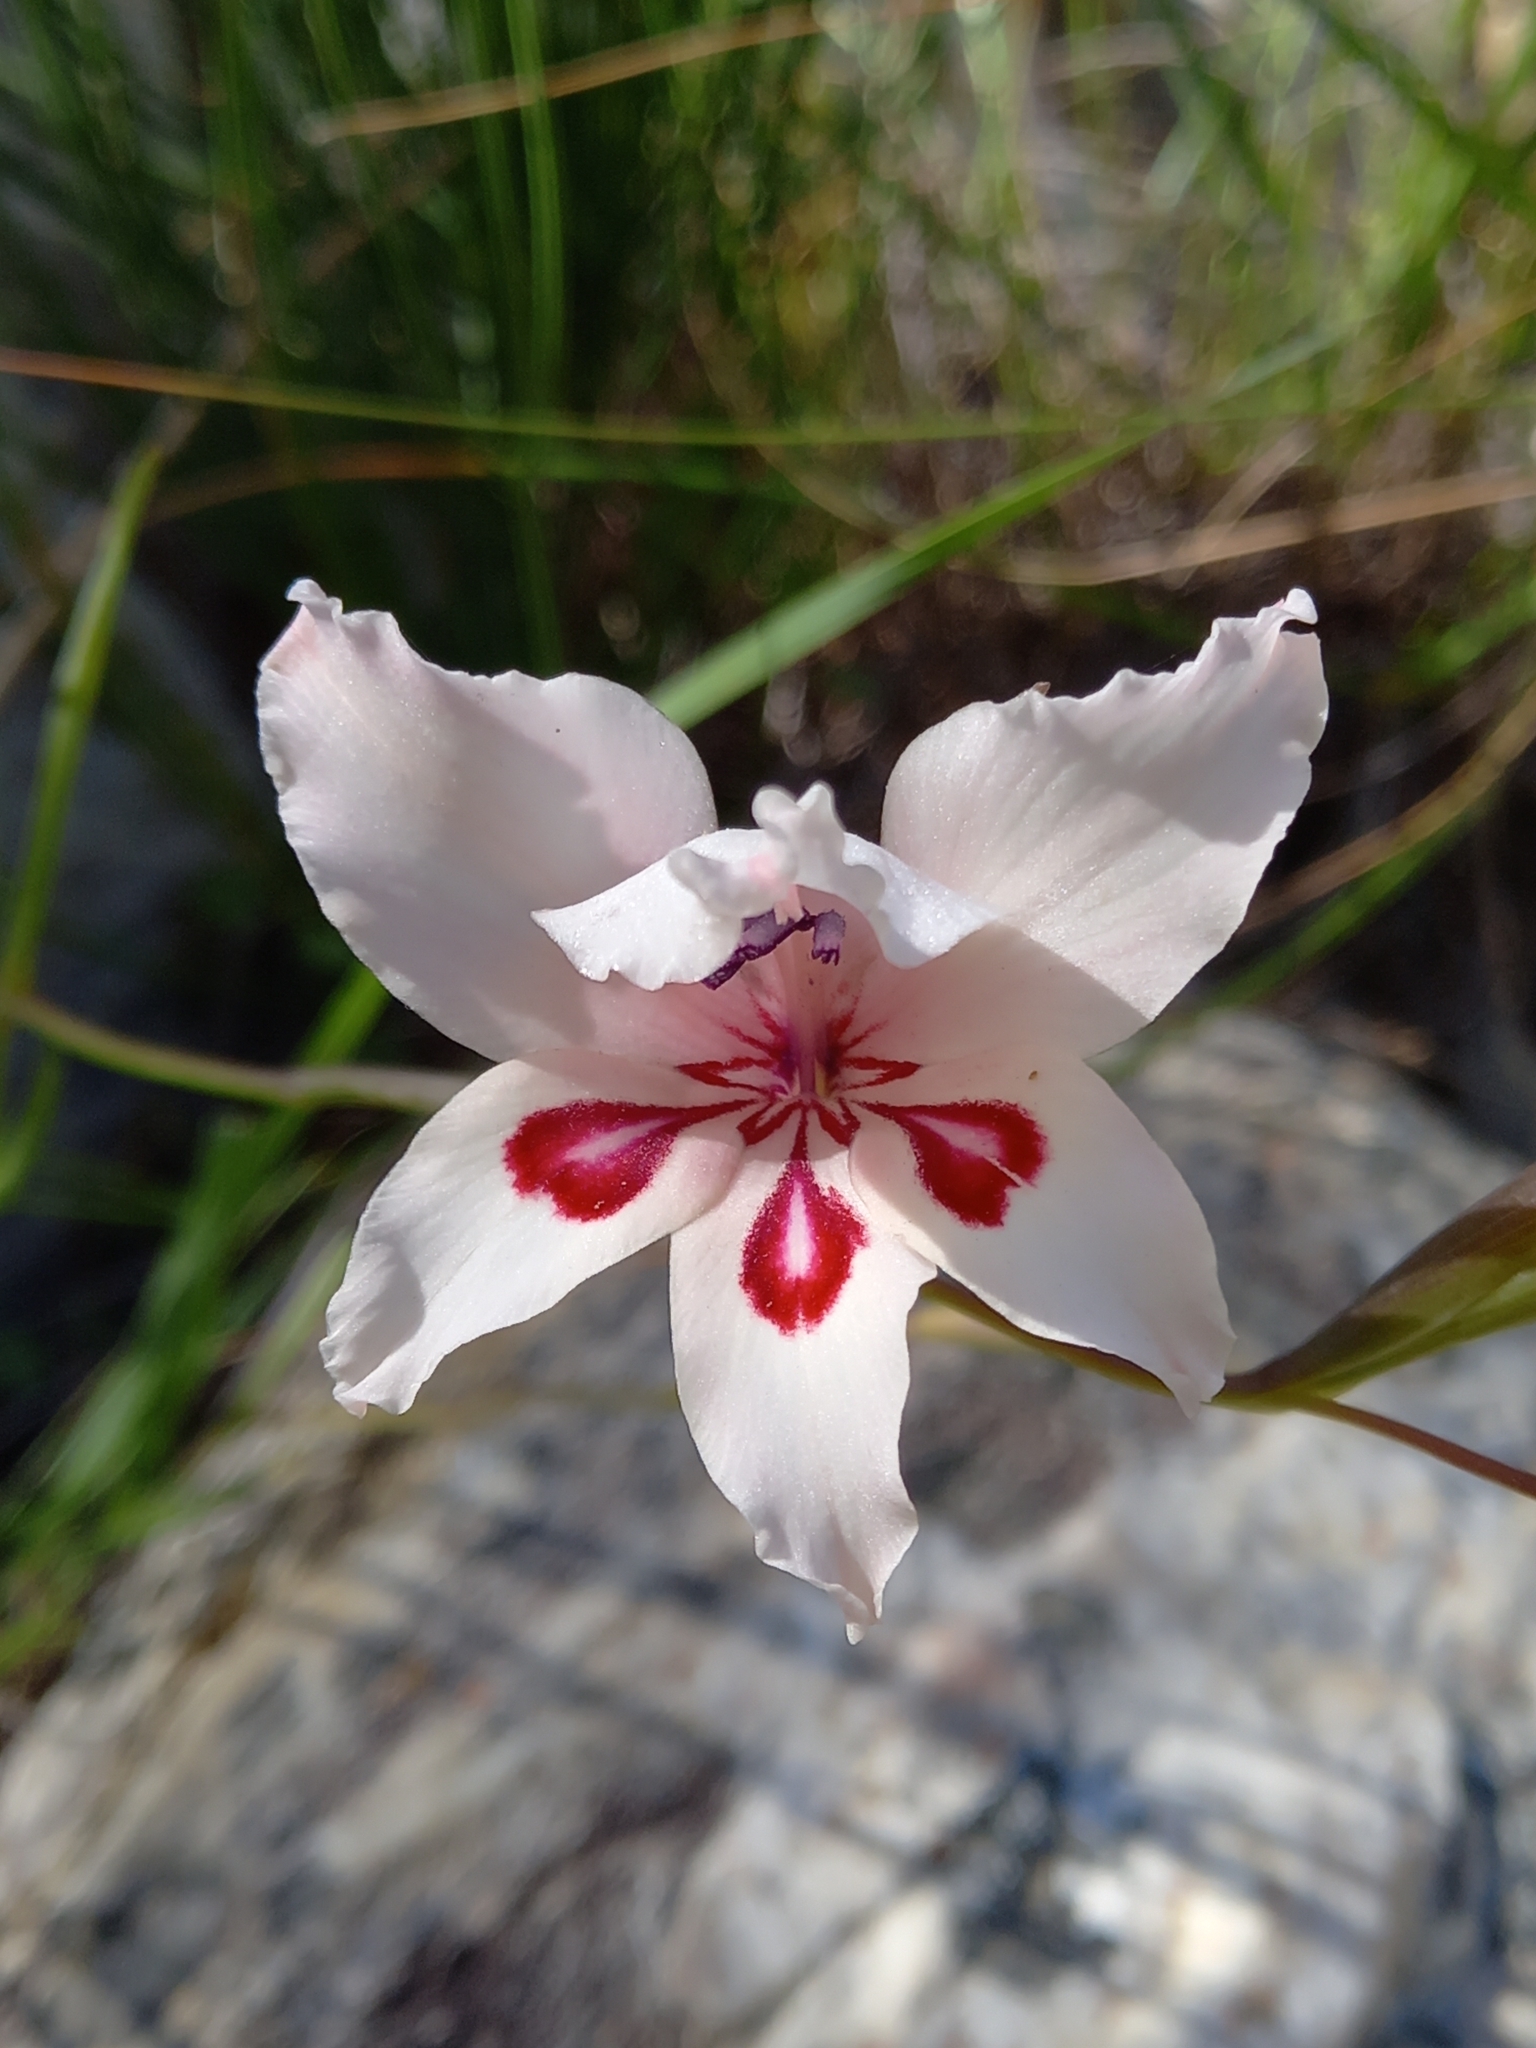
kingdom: Plantae
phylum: Tracheophyta
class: Liliopsida
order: Asparagales
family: Iridaceae
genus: Gladiolus
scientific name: Gladiolus carneus
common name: Painted-lady
